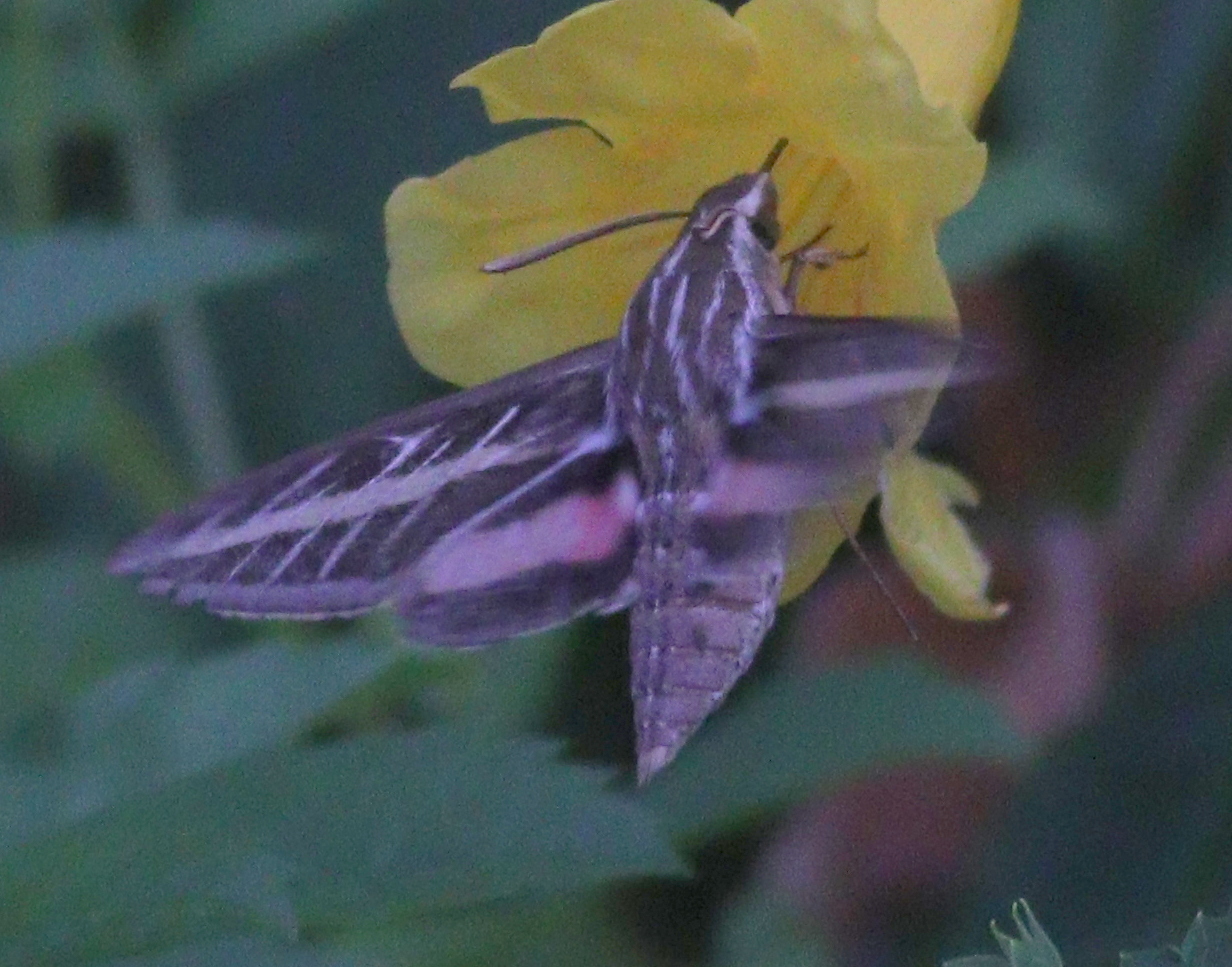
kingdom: Animalia
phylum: Arthropoda
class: Insecta
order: Lepidoptera
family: Sphingidae
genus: Hyles
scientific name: Hyles lineata
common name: White-lined sphinx
